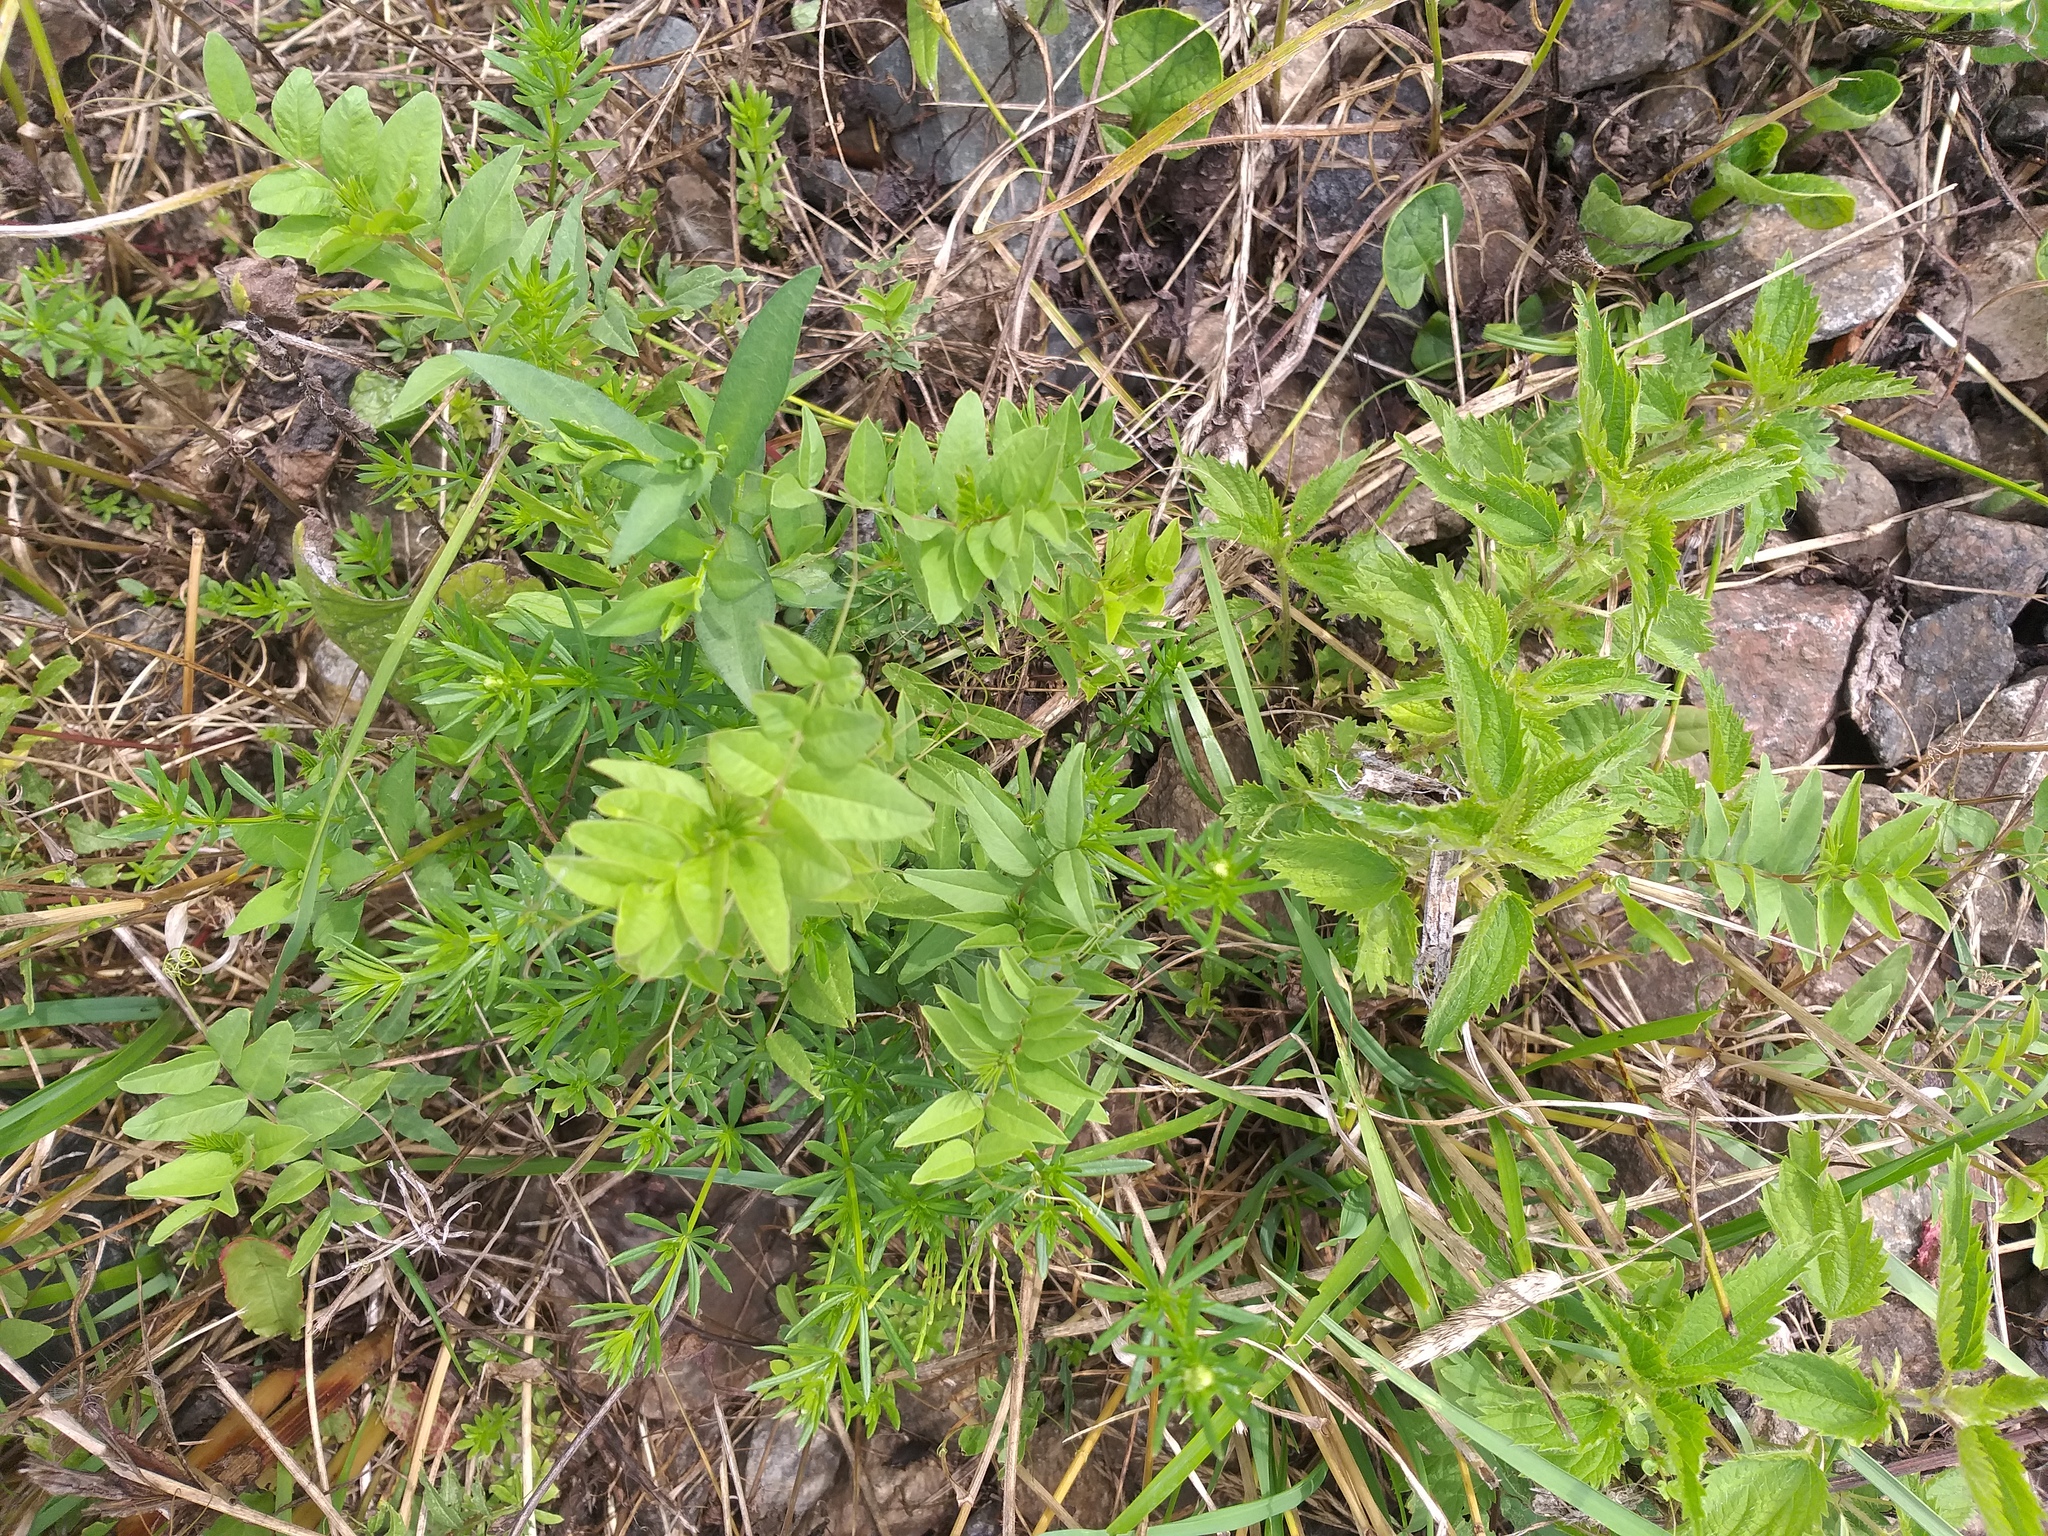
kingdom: Plantae
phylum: Tracheophyta
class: Magnoliopsida
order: Fabales
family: Fabaceae
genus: Vicia
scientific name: Vicia sepium
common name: Bush vetch
